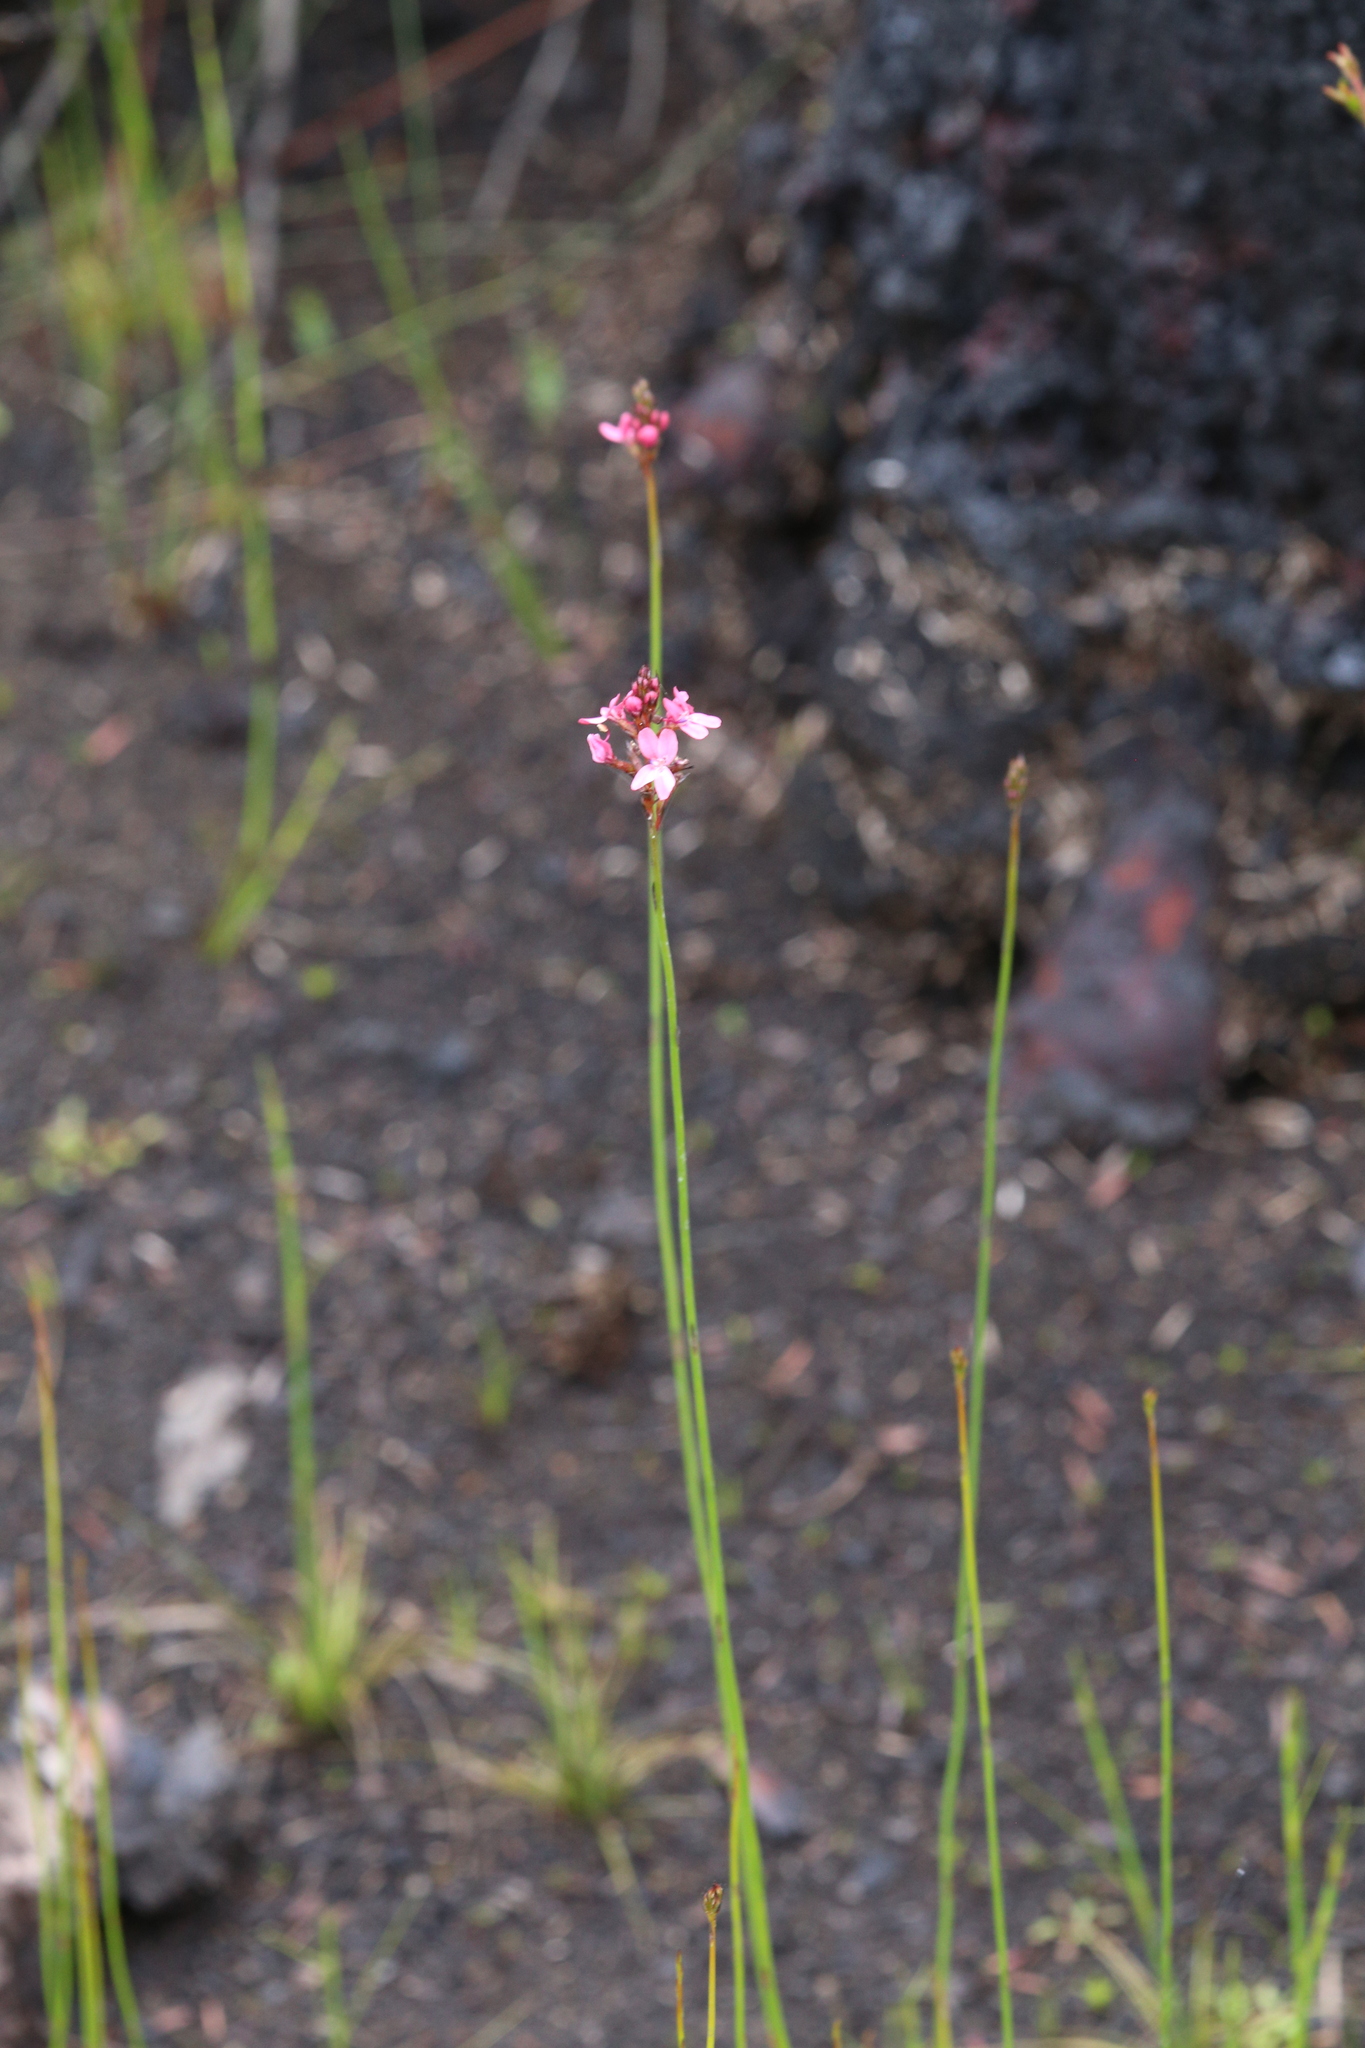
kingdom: Plantae
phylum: Tracheophyta
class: Magnoliopsida
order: Asterales
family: Stylidiaceae
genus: Stylidium
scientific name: Stylidium squamosotuberosum
